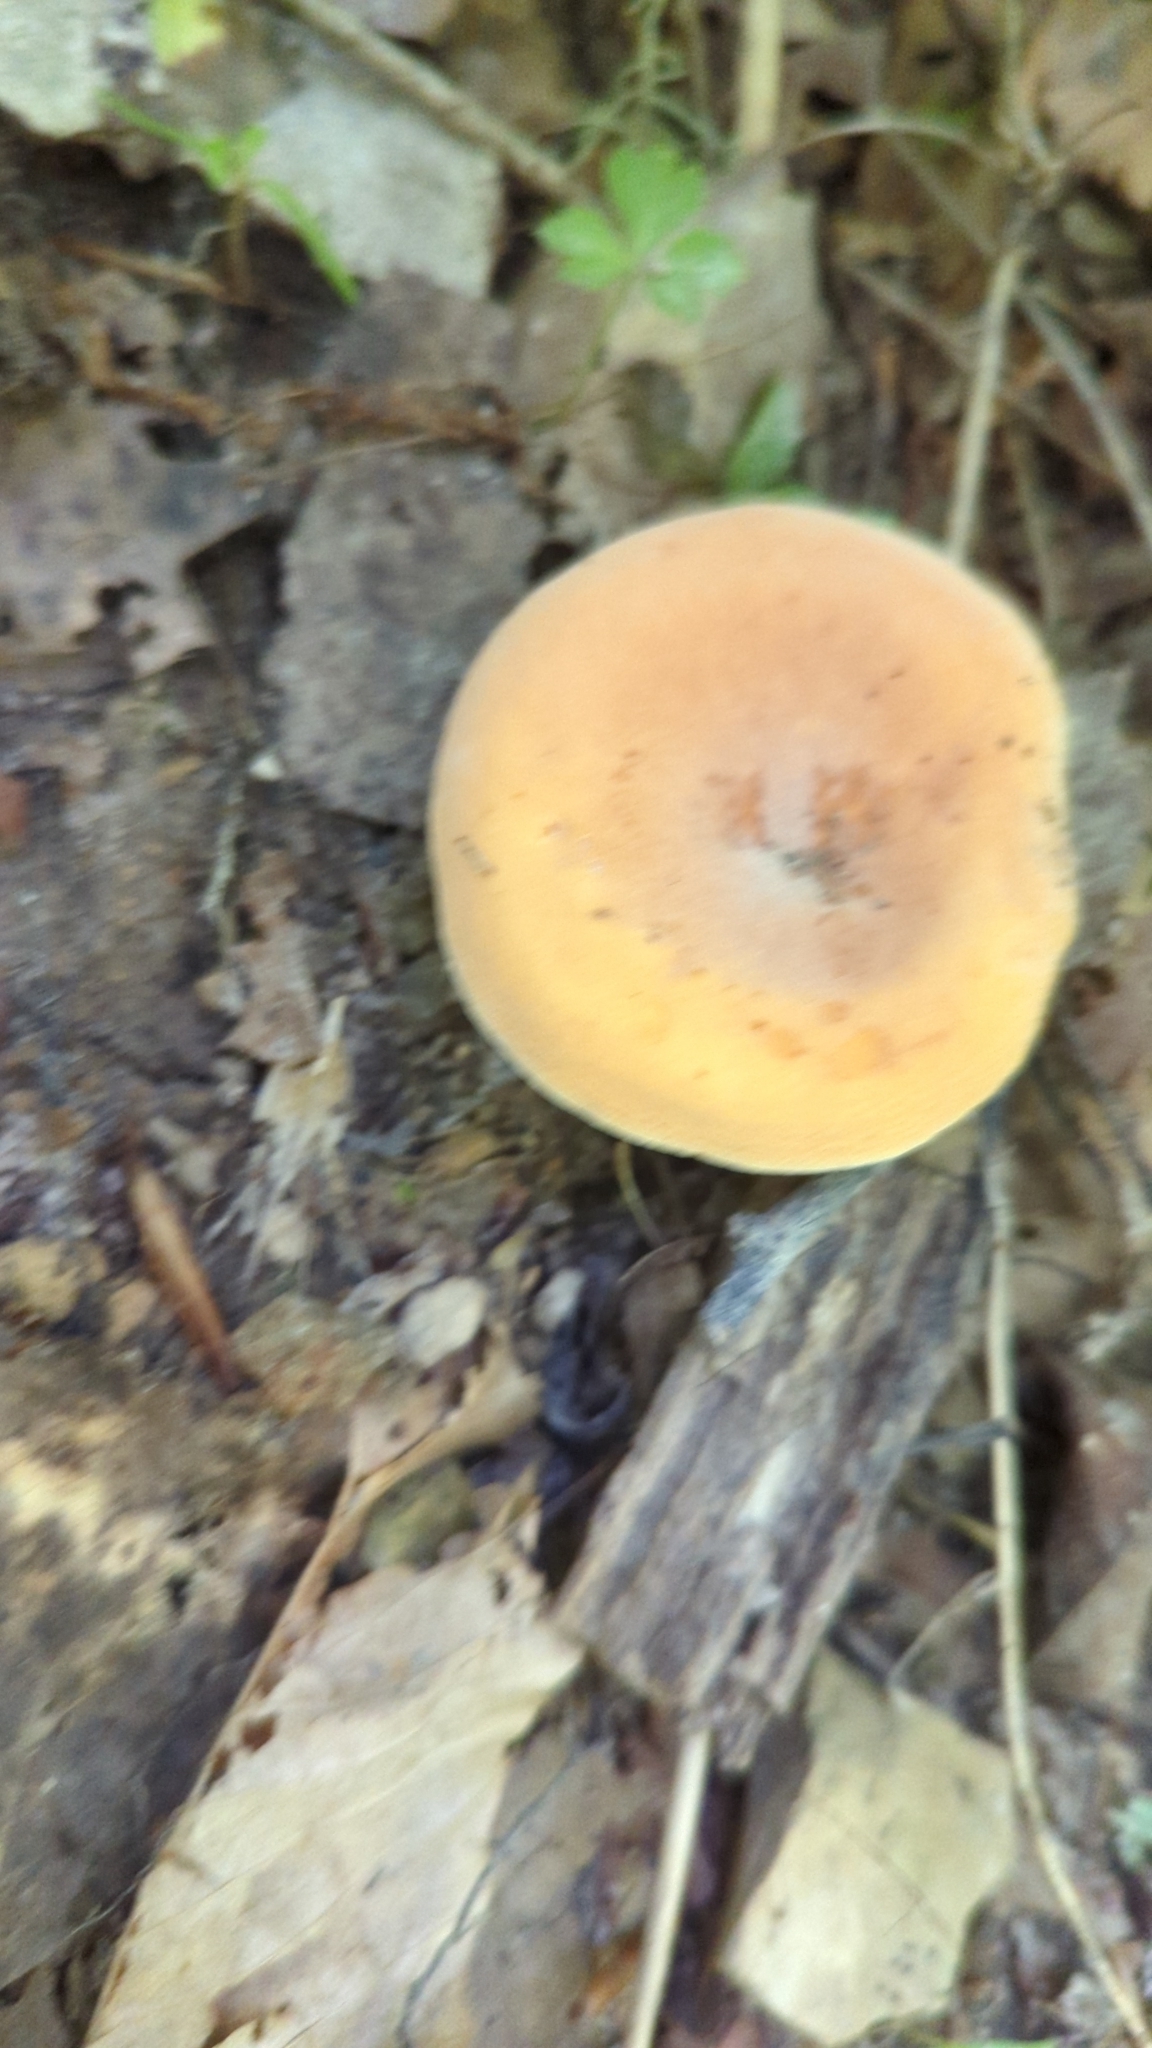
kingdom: Fungi
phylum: Basidiomycota
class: Agaricomycetes
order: Russulales
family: Russulaceae
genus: Lactarius
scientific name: Lactarius hygrophoroides
